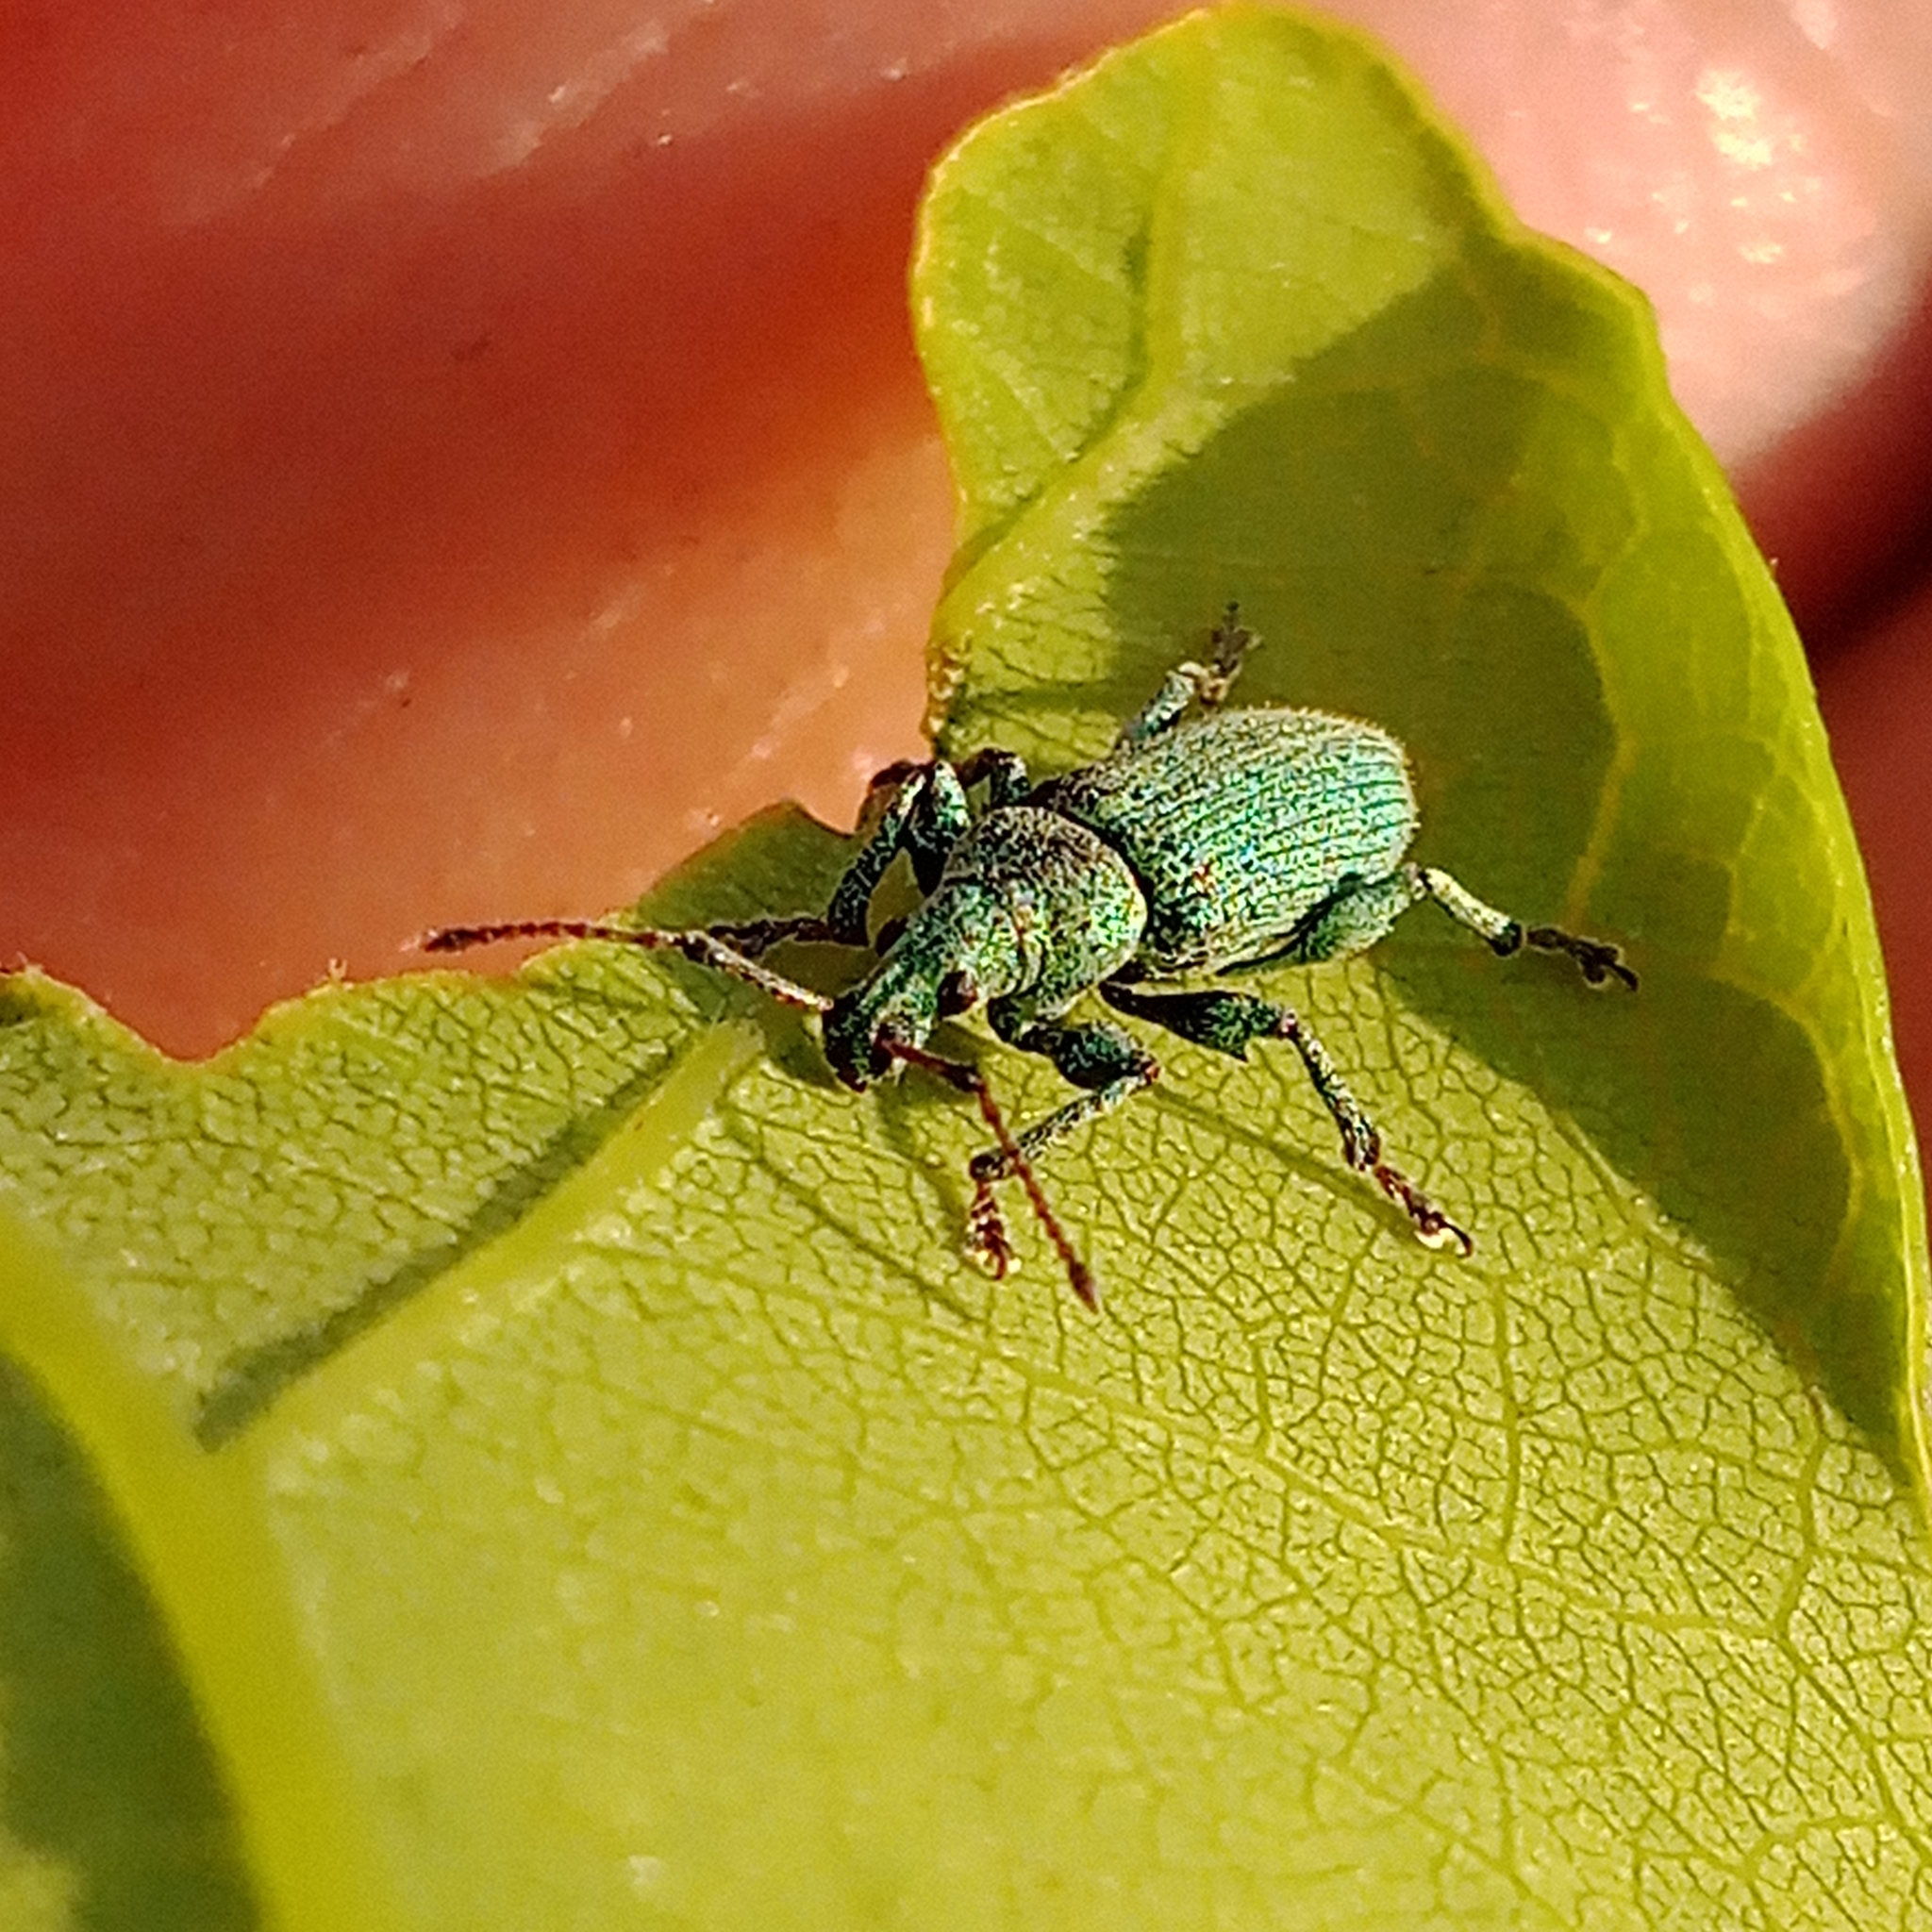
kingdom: Animalia
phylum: Arthropoda
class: Insecta
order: Coleoptera
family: Curculionidae
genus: Phyllobius
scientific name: Phyllobius maculicornis
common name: Green leaf weevil
